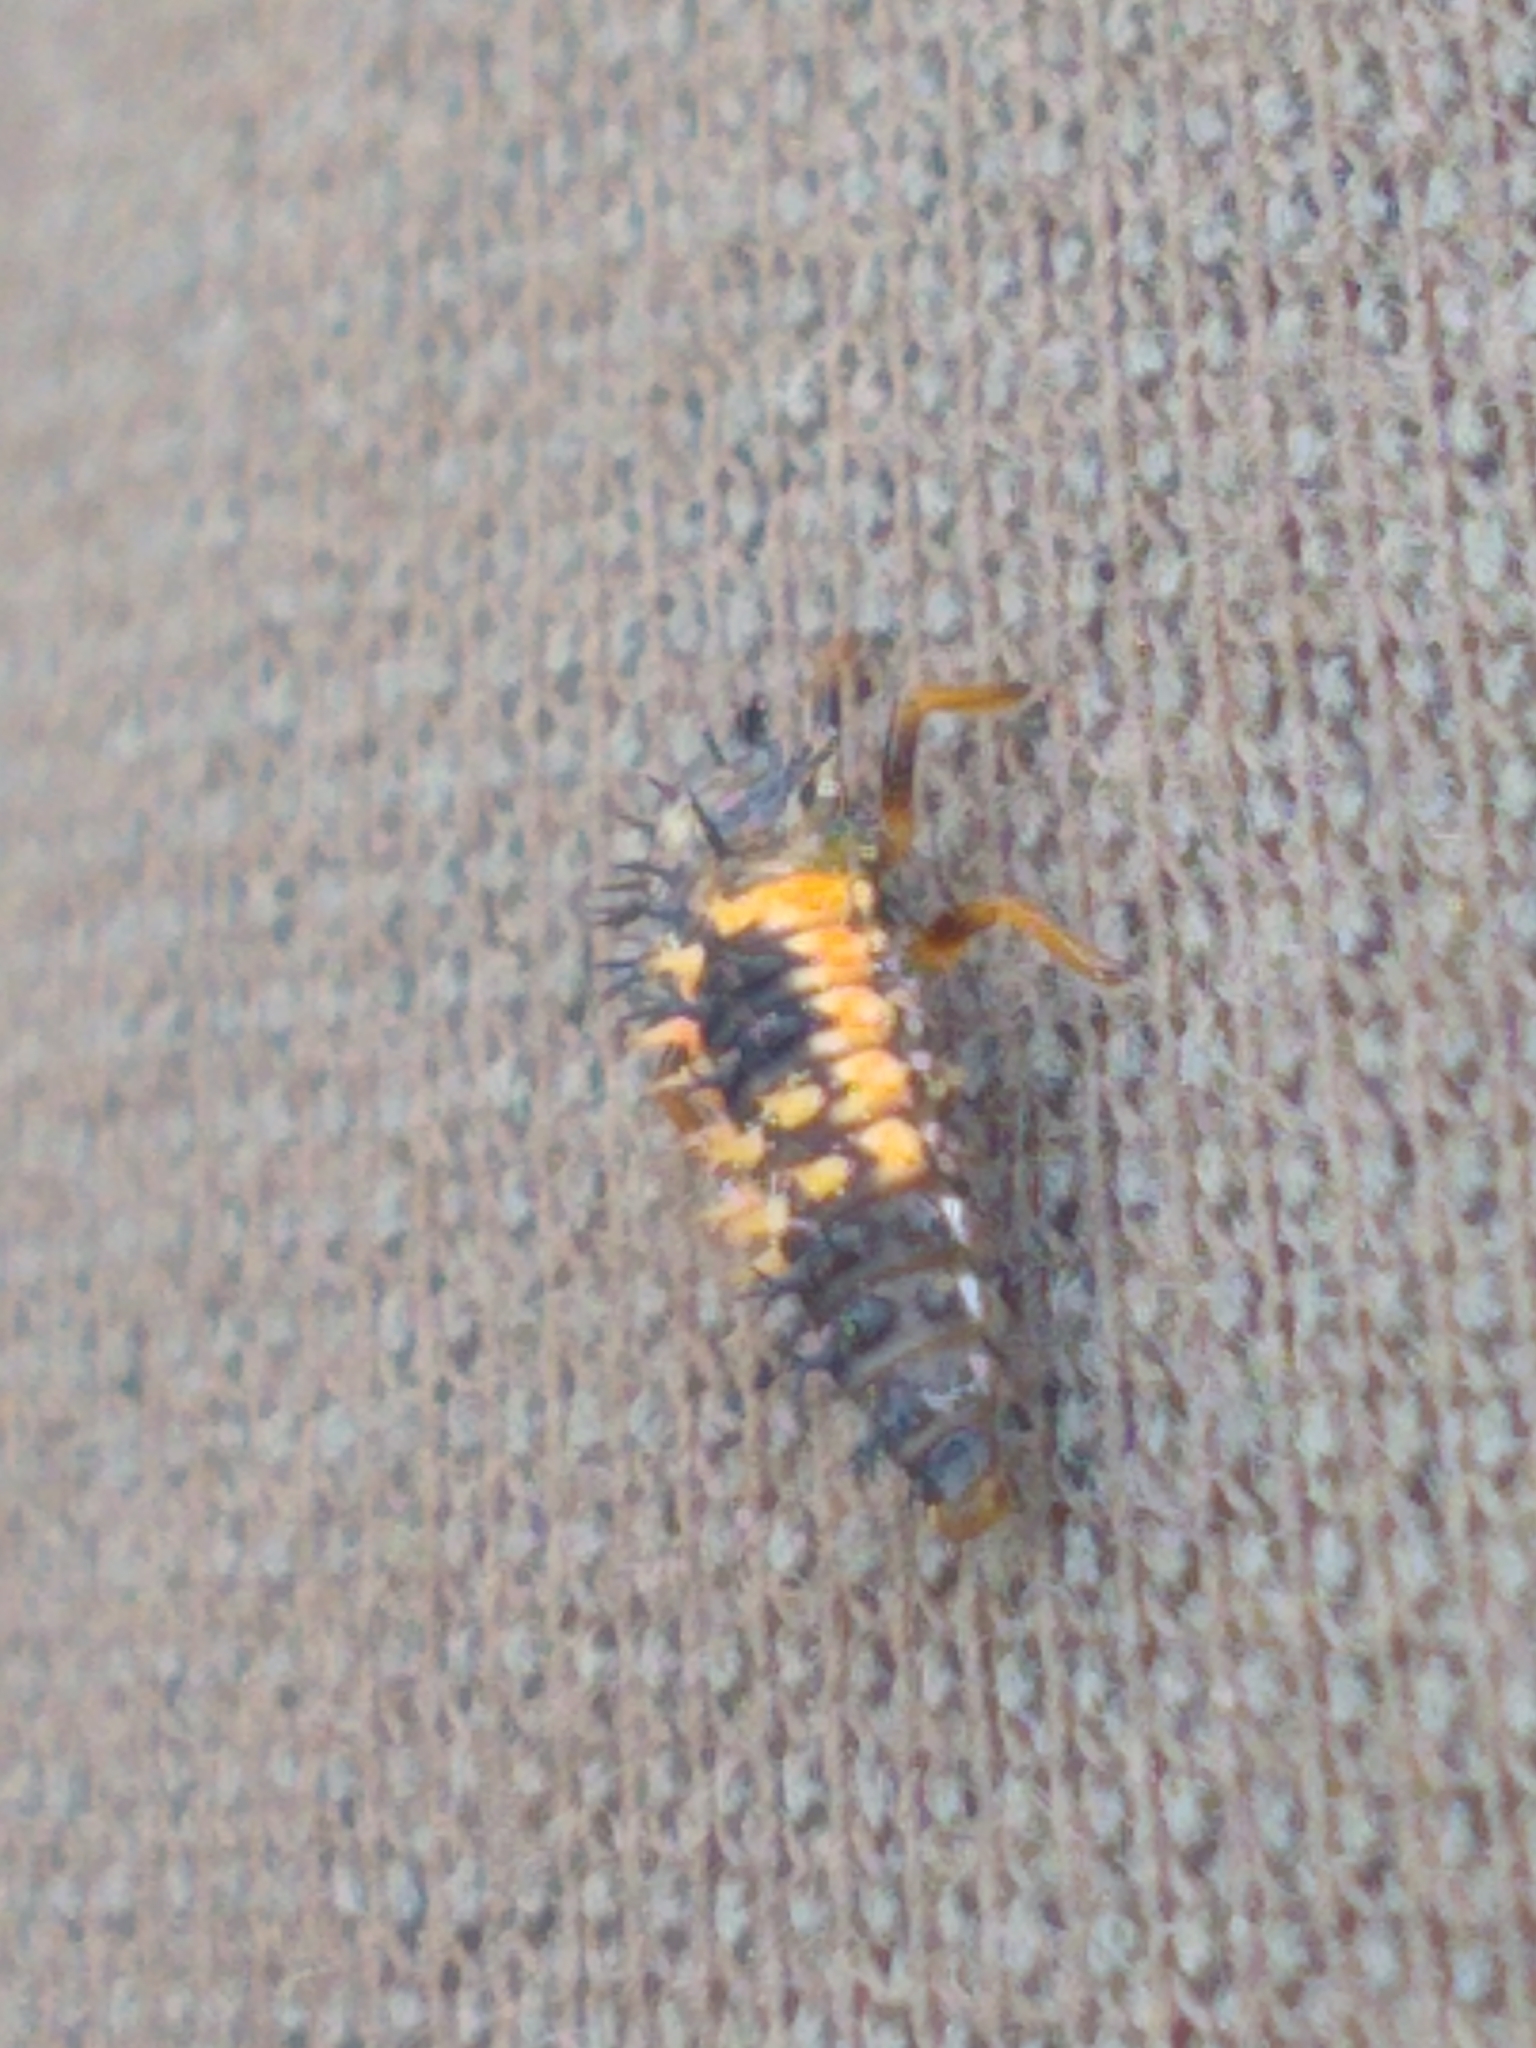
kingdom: Animalia
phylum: Arthropoda
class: Insecta
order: Coleoptera
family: Coccinellidae
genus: Harmonia
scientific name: Harmonia axyridis
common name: Harlequin ladybird
